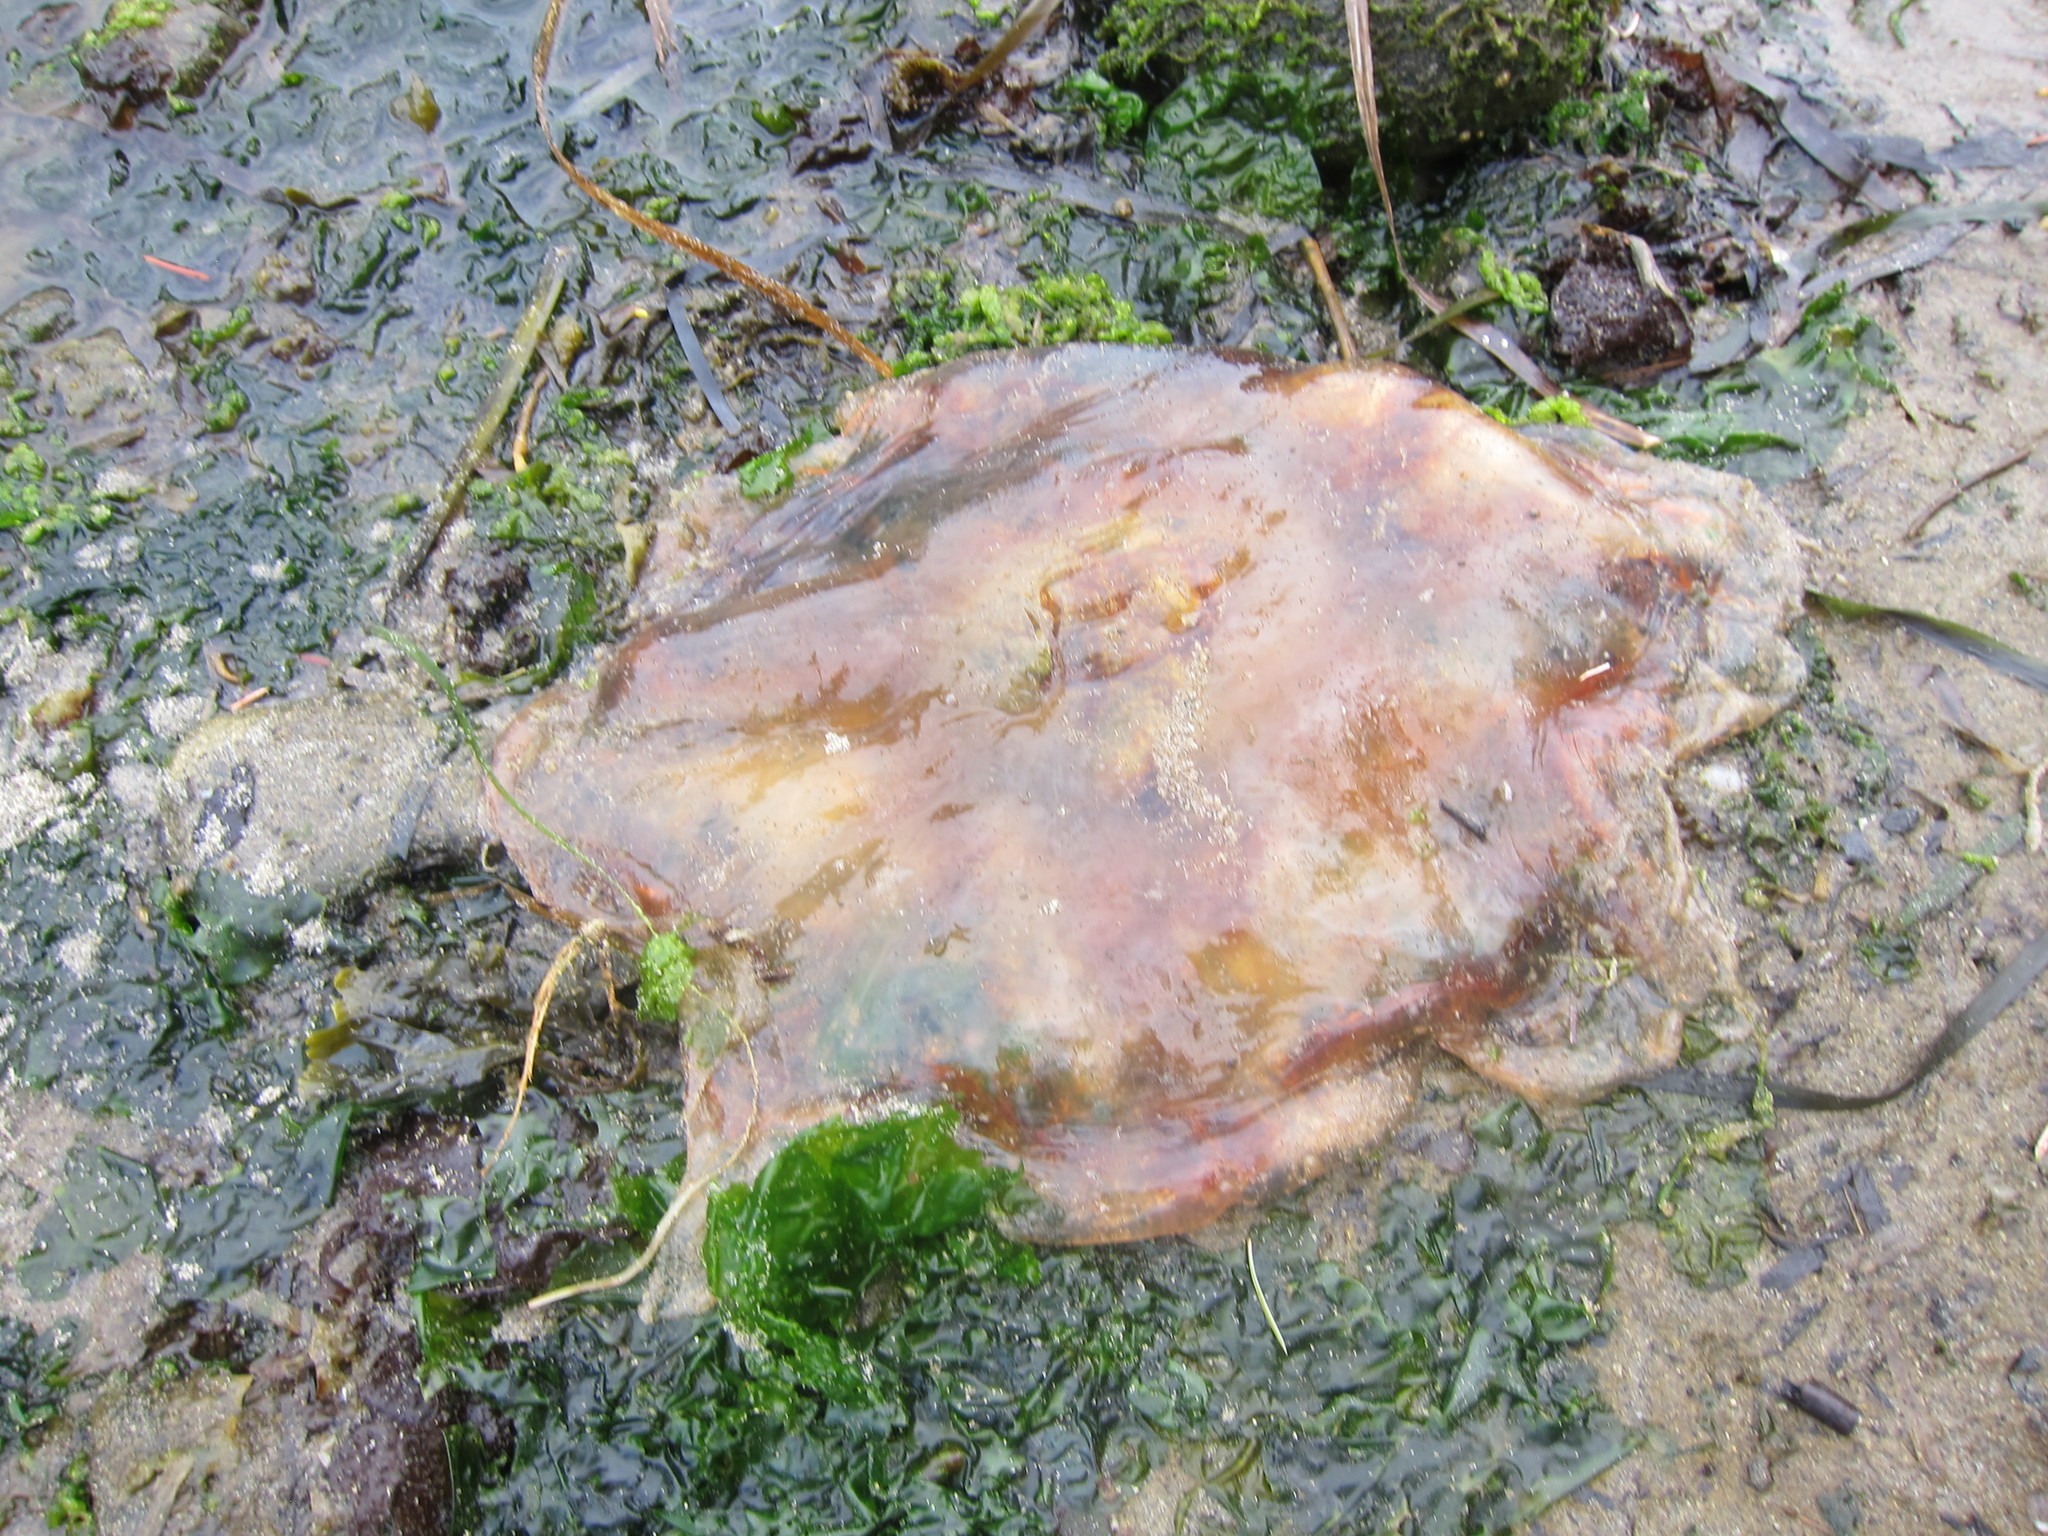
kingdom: Animalia
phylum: Cnidaria
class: Scyphozoa
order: Semaeostomeae
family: Cyaneidae
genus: Cyanea
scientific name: Cyanea ferruginea
